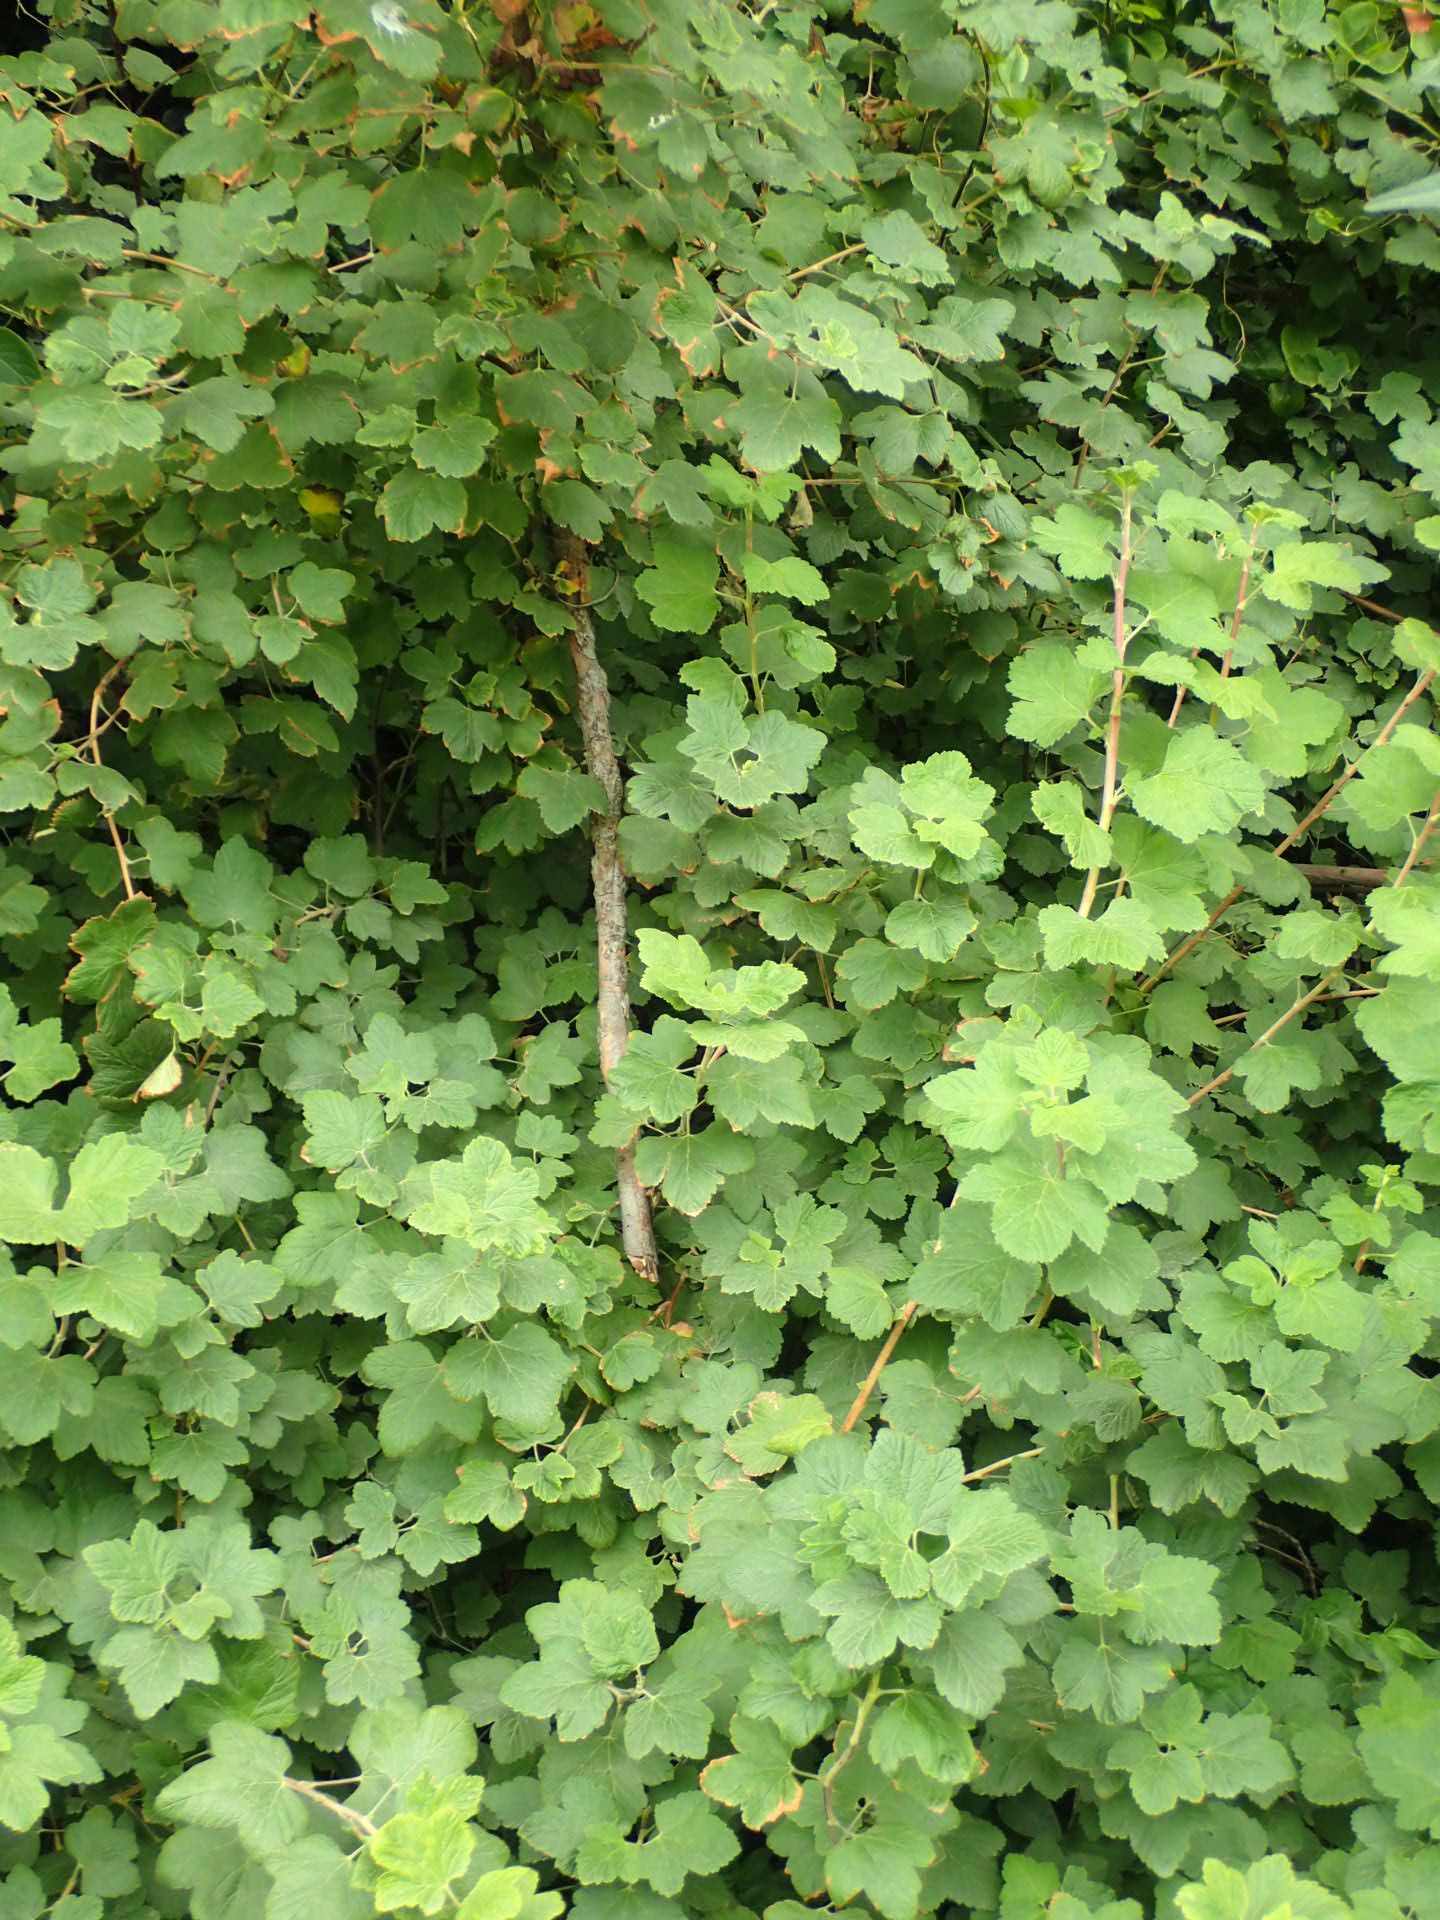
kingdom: Plantae
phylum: Tracheophyta
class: Magnoliopsida
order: Saxifragales
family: Grossulariaceae
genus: Ribes
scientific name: Ribes sanguineum
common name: Flowering currant
